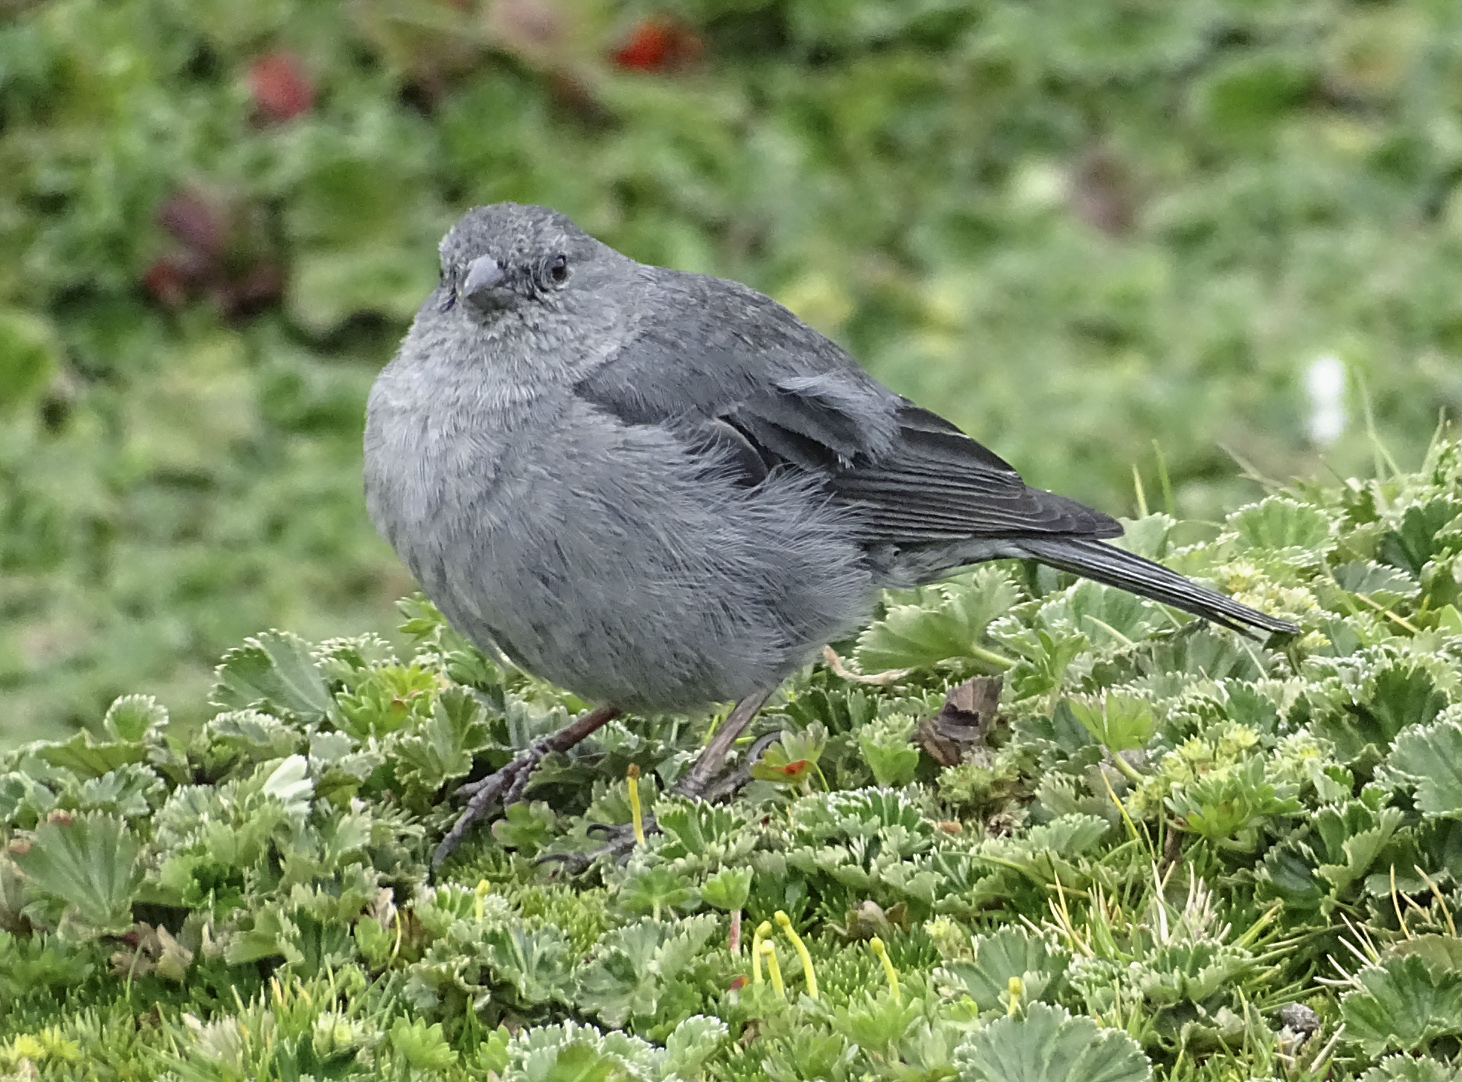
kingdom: Animalia
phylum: Chordata
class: Aves
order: Passeriformes
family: Thraupidae
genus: Geospizopsis
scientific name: Geospizopsis unicolor
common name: Plumbeous sierra-finch
